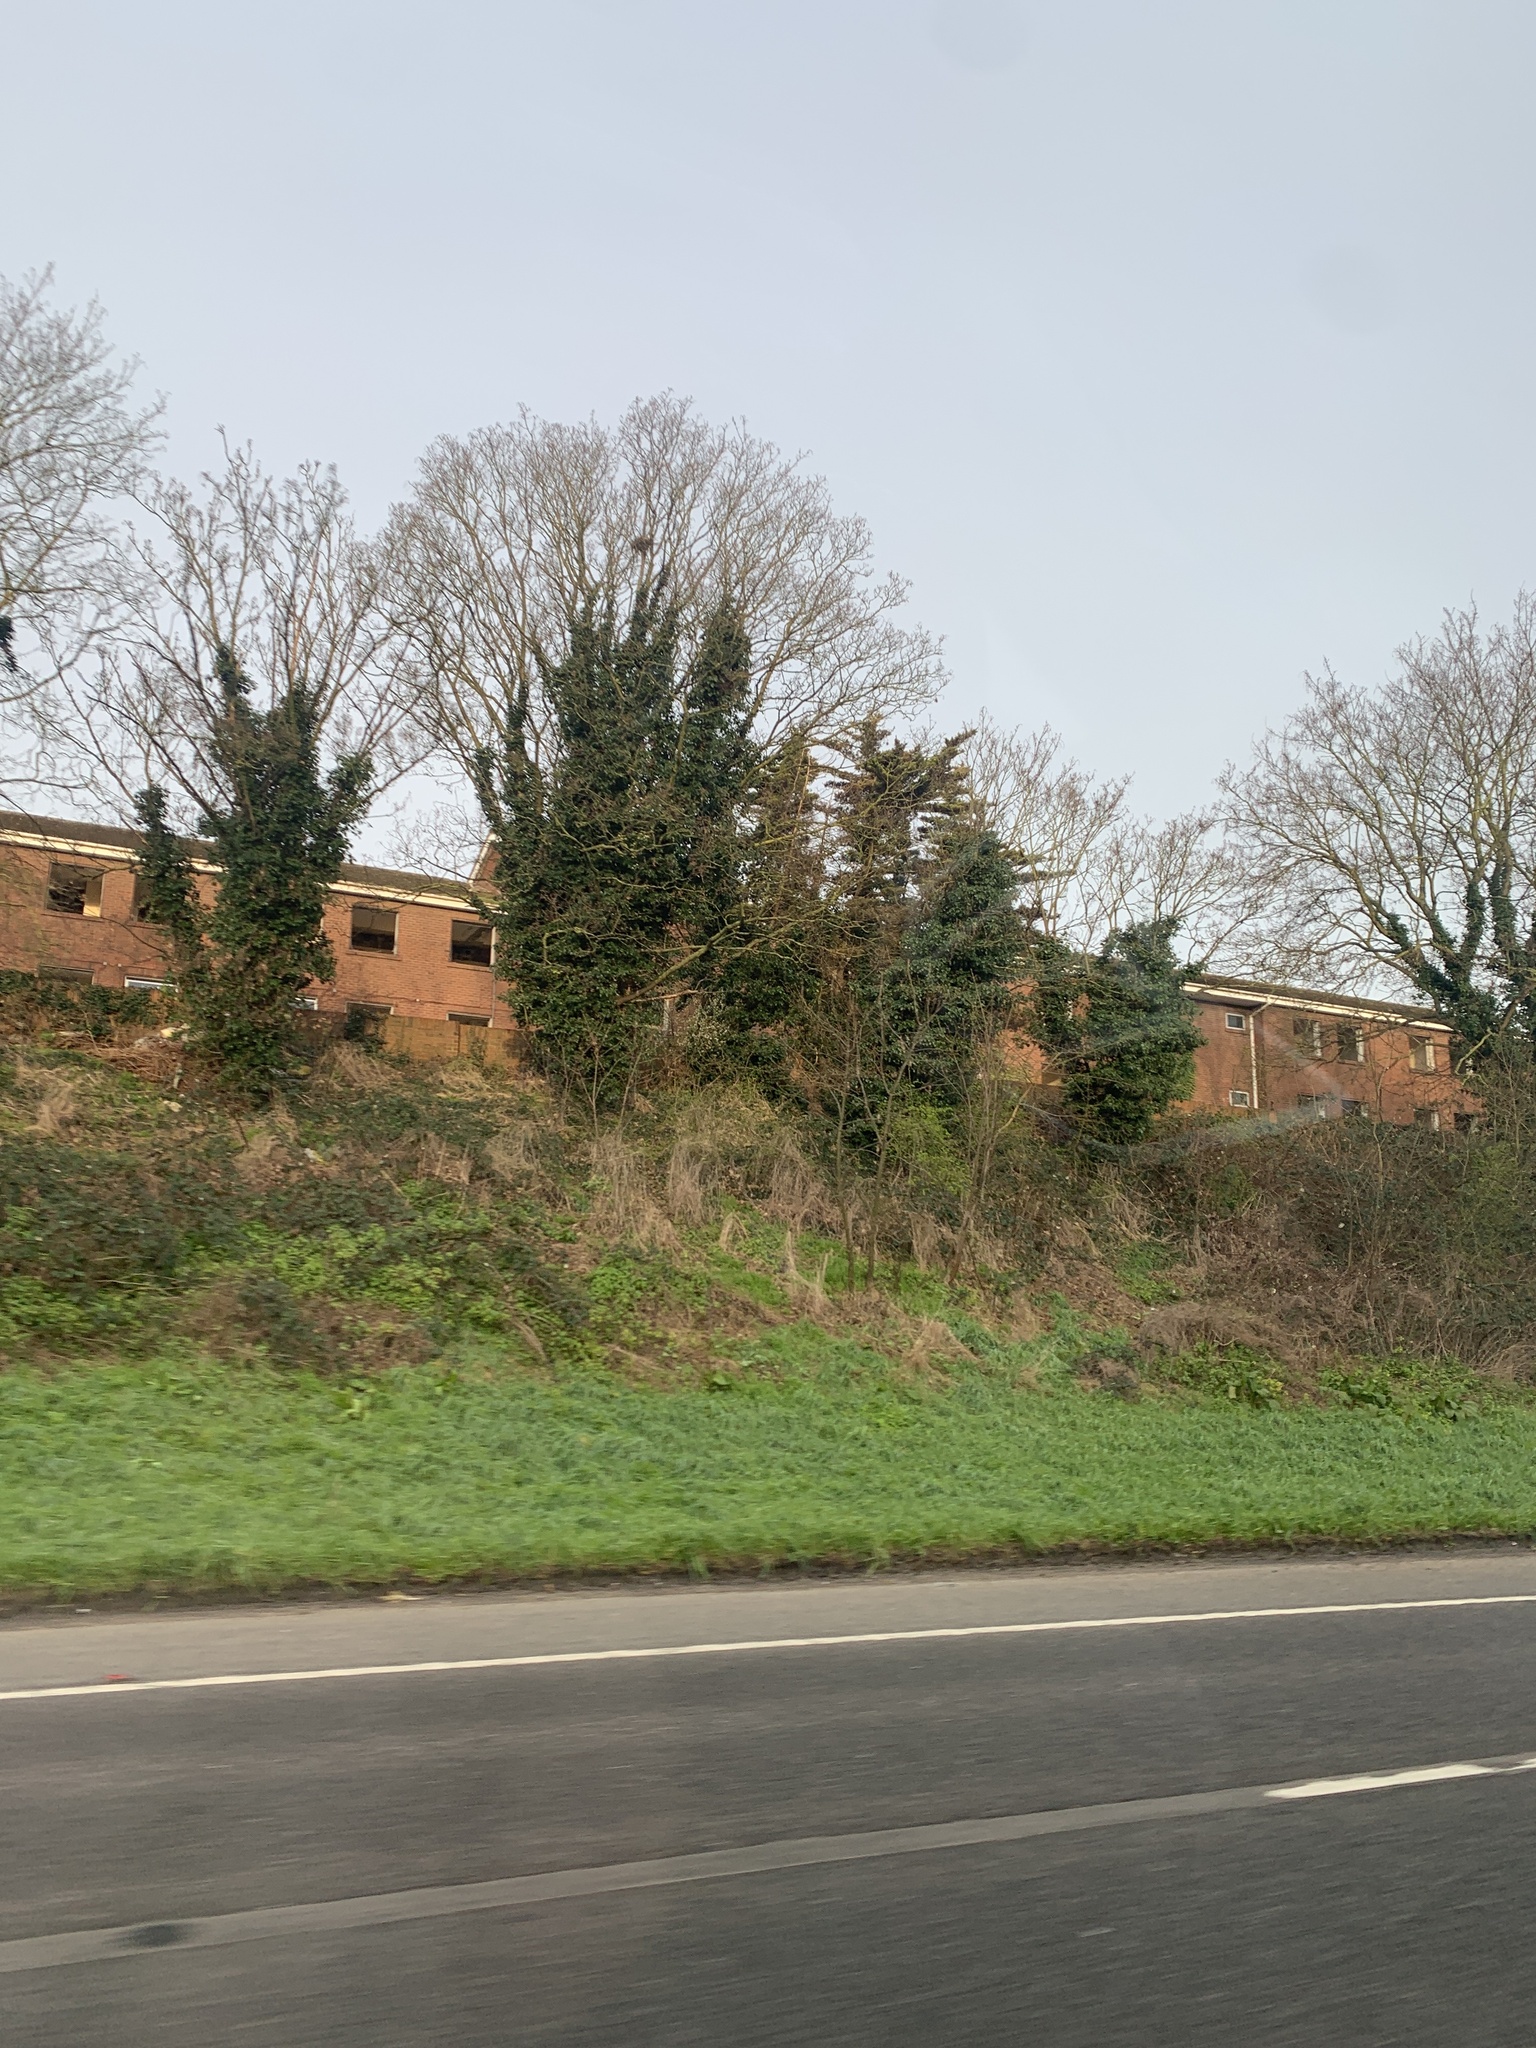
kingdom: Plantae
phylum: Tracheophyta
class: Magnoliopsida
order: Apiales
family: Araliaceae
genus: Hedera
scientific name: Hedera
